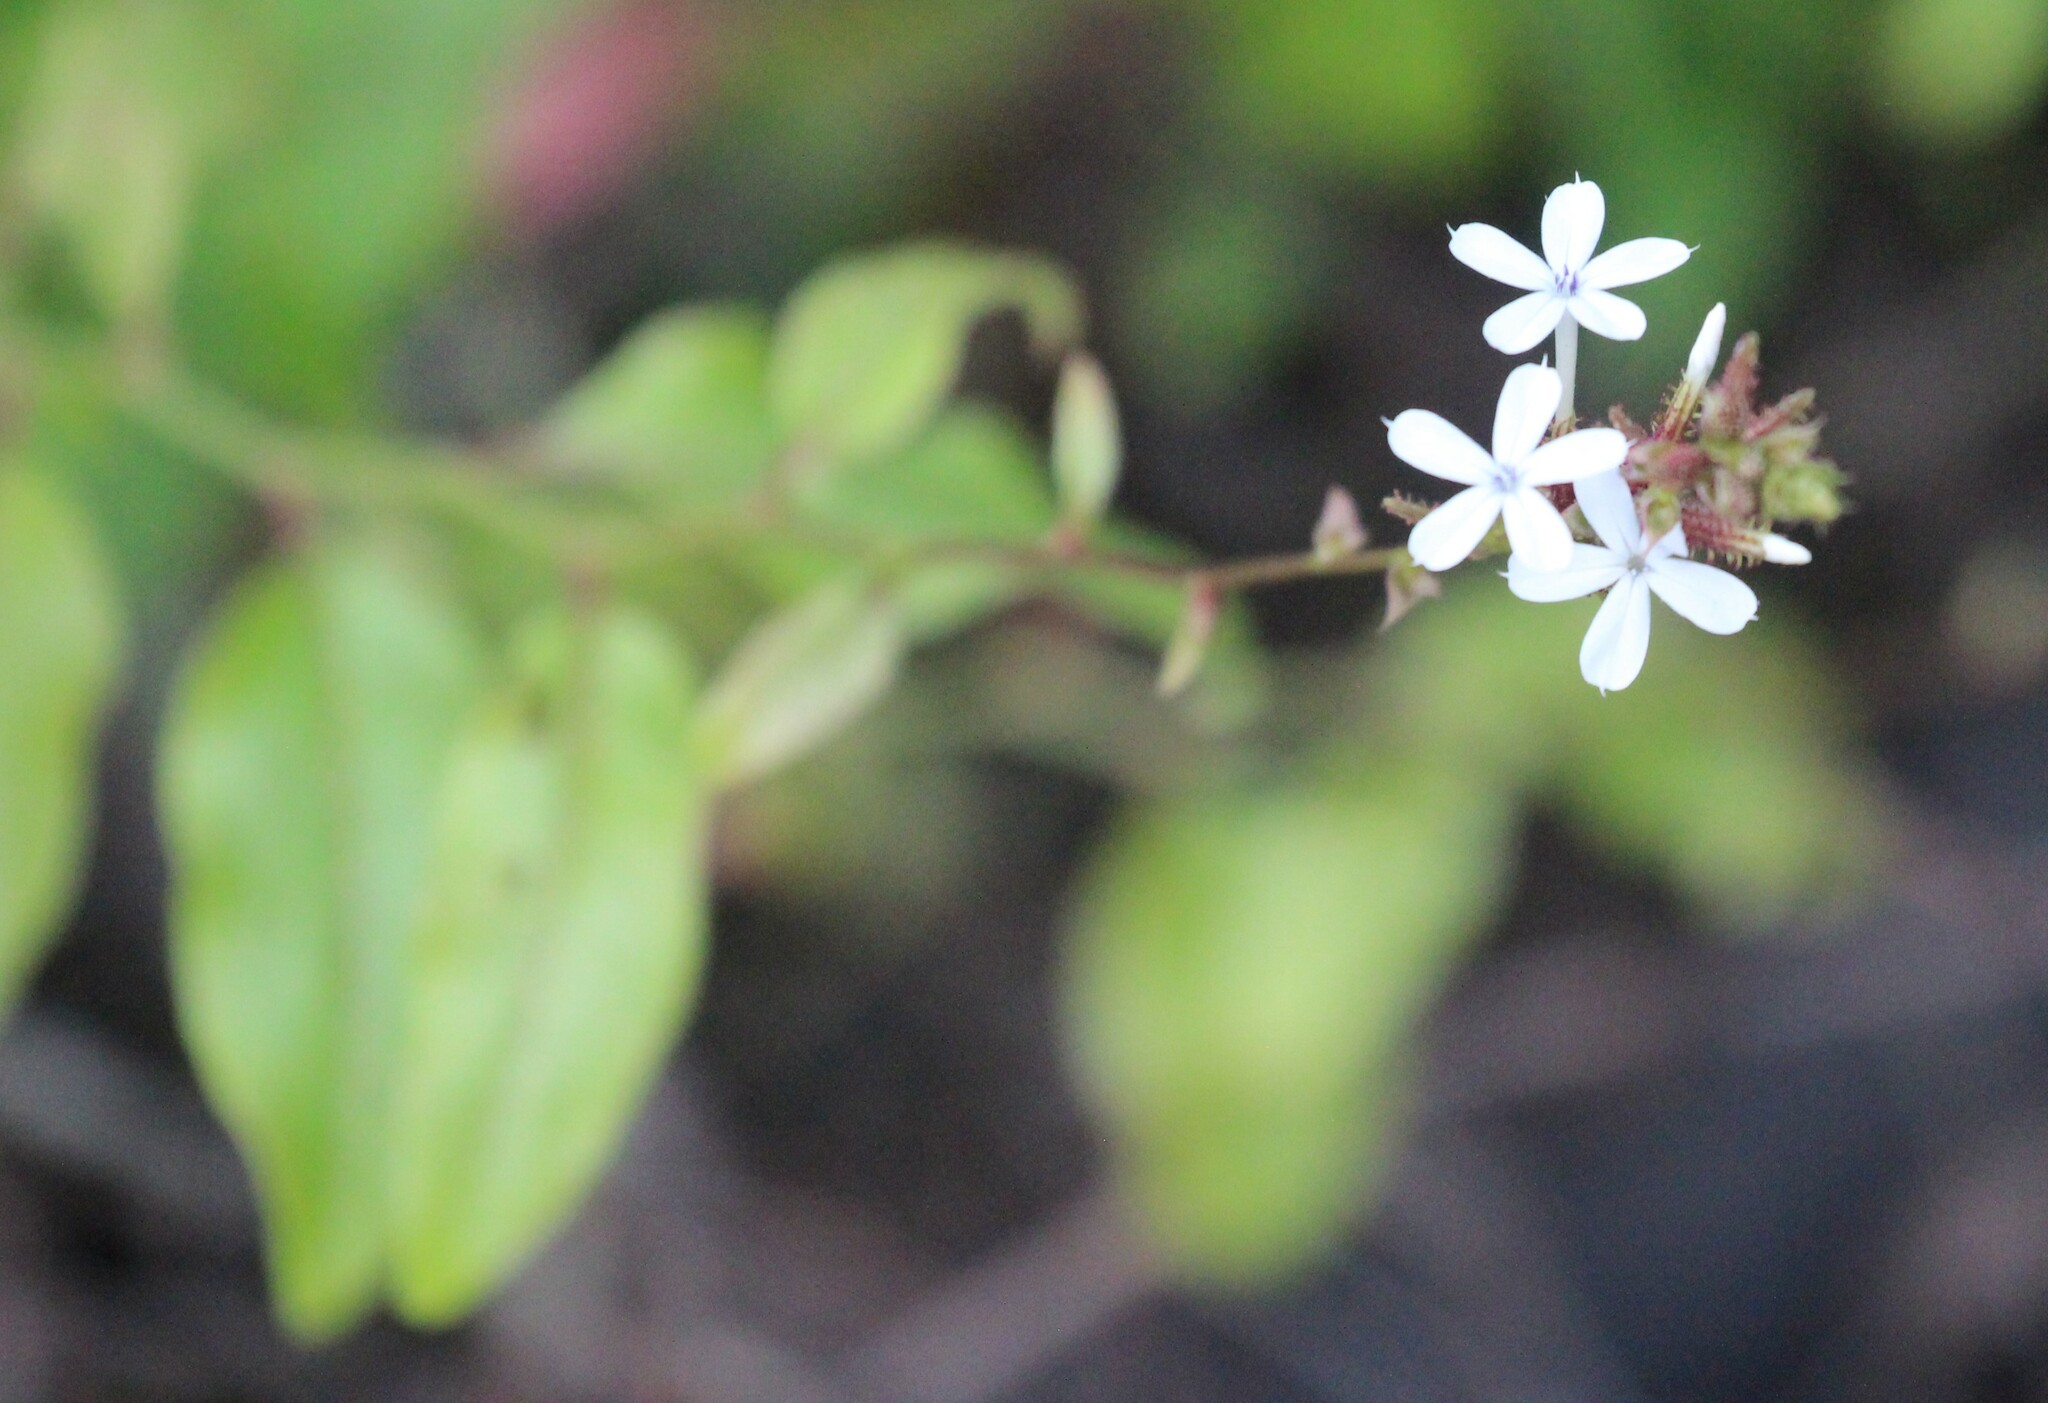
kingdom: Plantae
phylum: Tracheophyta
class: Magnoliopsida
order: Caryophyllales
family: Plumbaginaceae
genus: Plumbago
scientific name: Plumbago zeylanica
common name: Doctorbush
